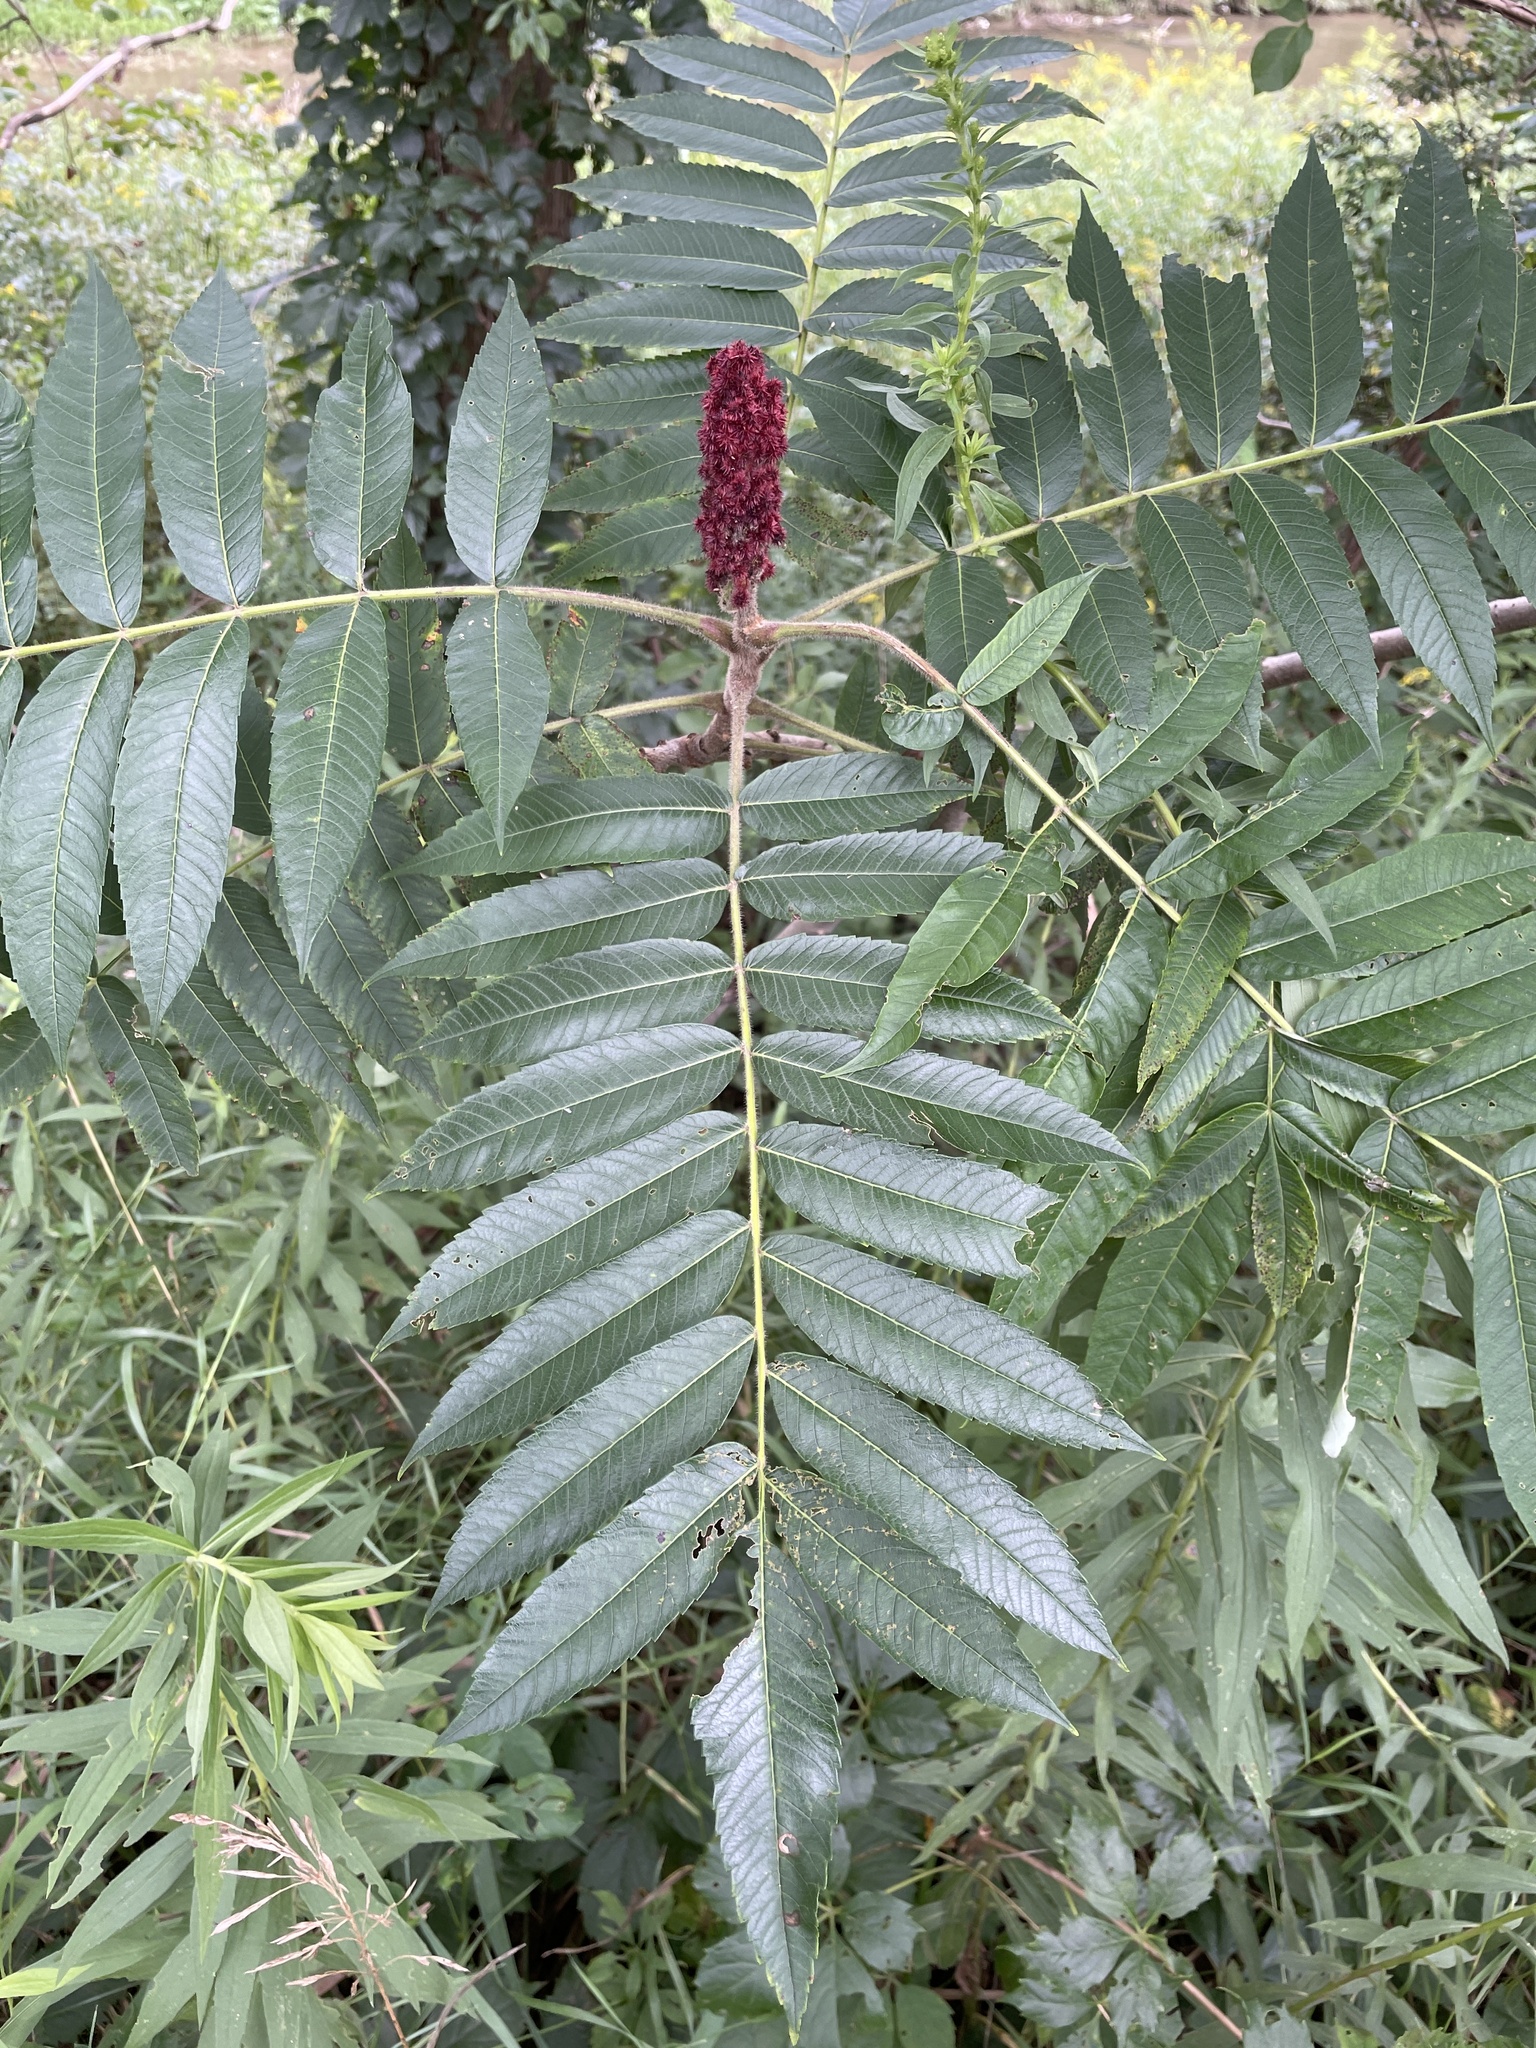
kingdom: Plantae
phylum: Tracheophyta
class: Magnoliopsida
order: Sapindales
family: Anacardiaceae
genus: Rhus
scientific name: Rhus typhina
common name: Staghorn sumac
